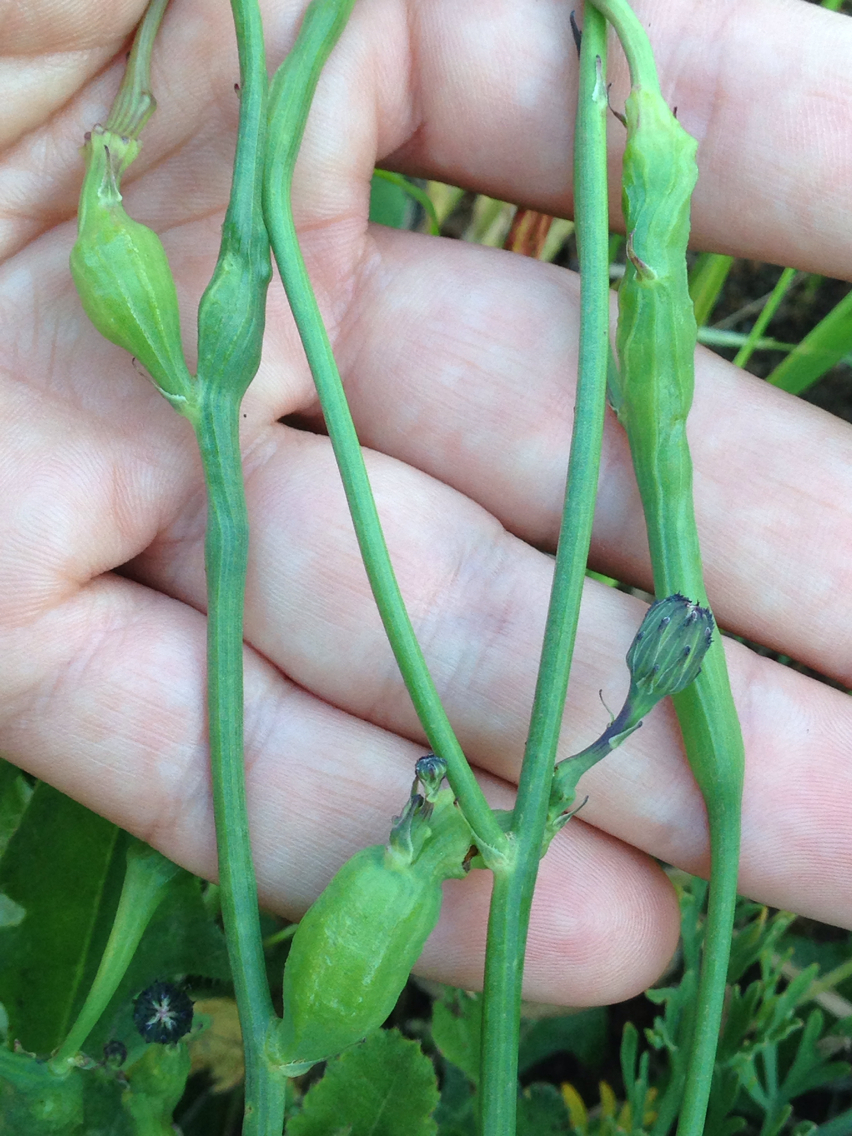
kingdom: Animalia
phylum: Arthropoda
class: Insecta
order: Hymenoptera
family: Cynipidae
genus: Phanacis
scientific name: Phanacis hypochoeridis
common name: Gall wasp
